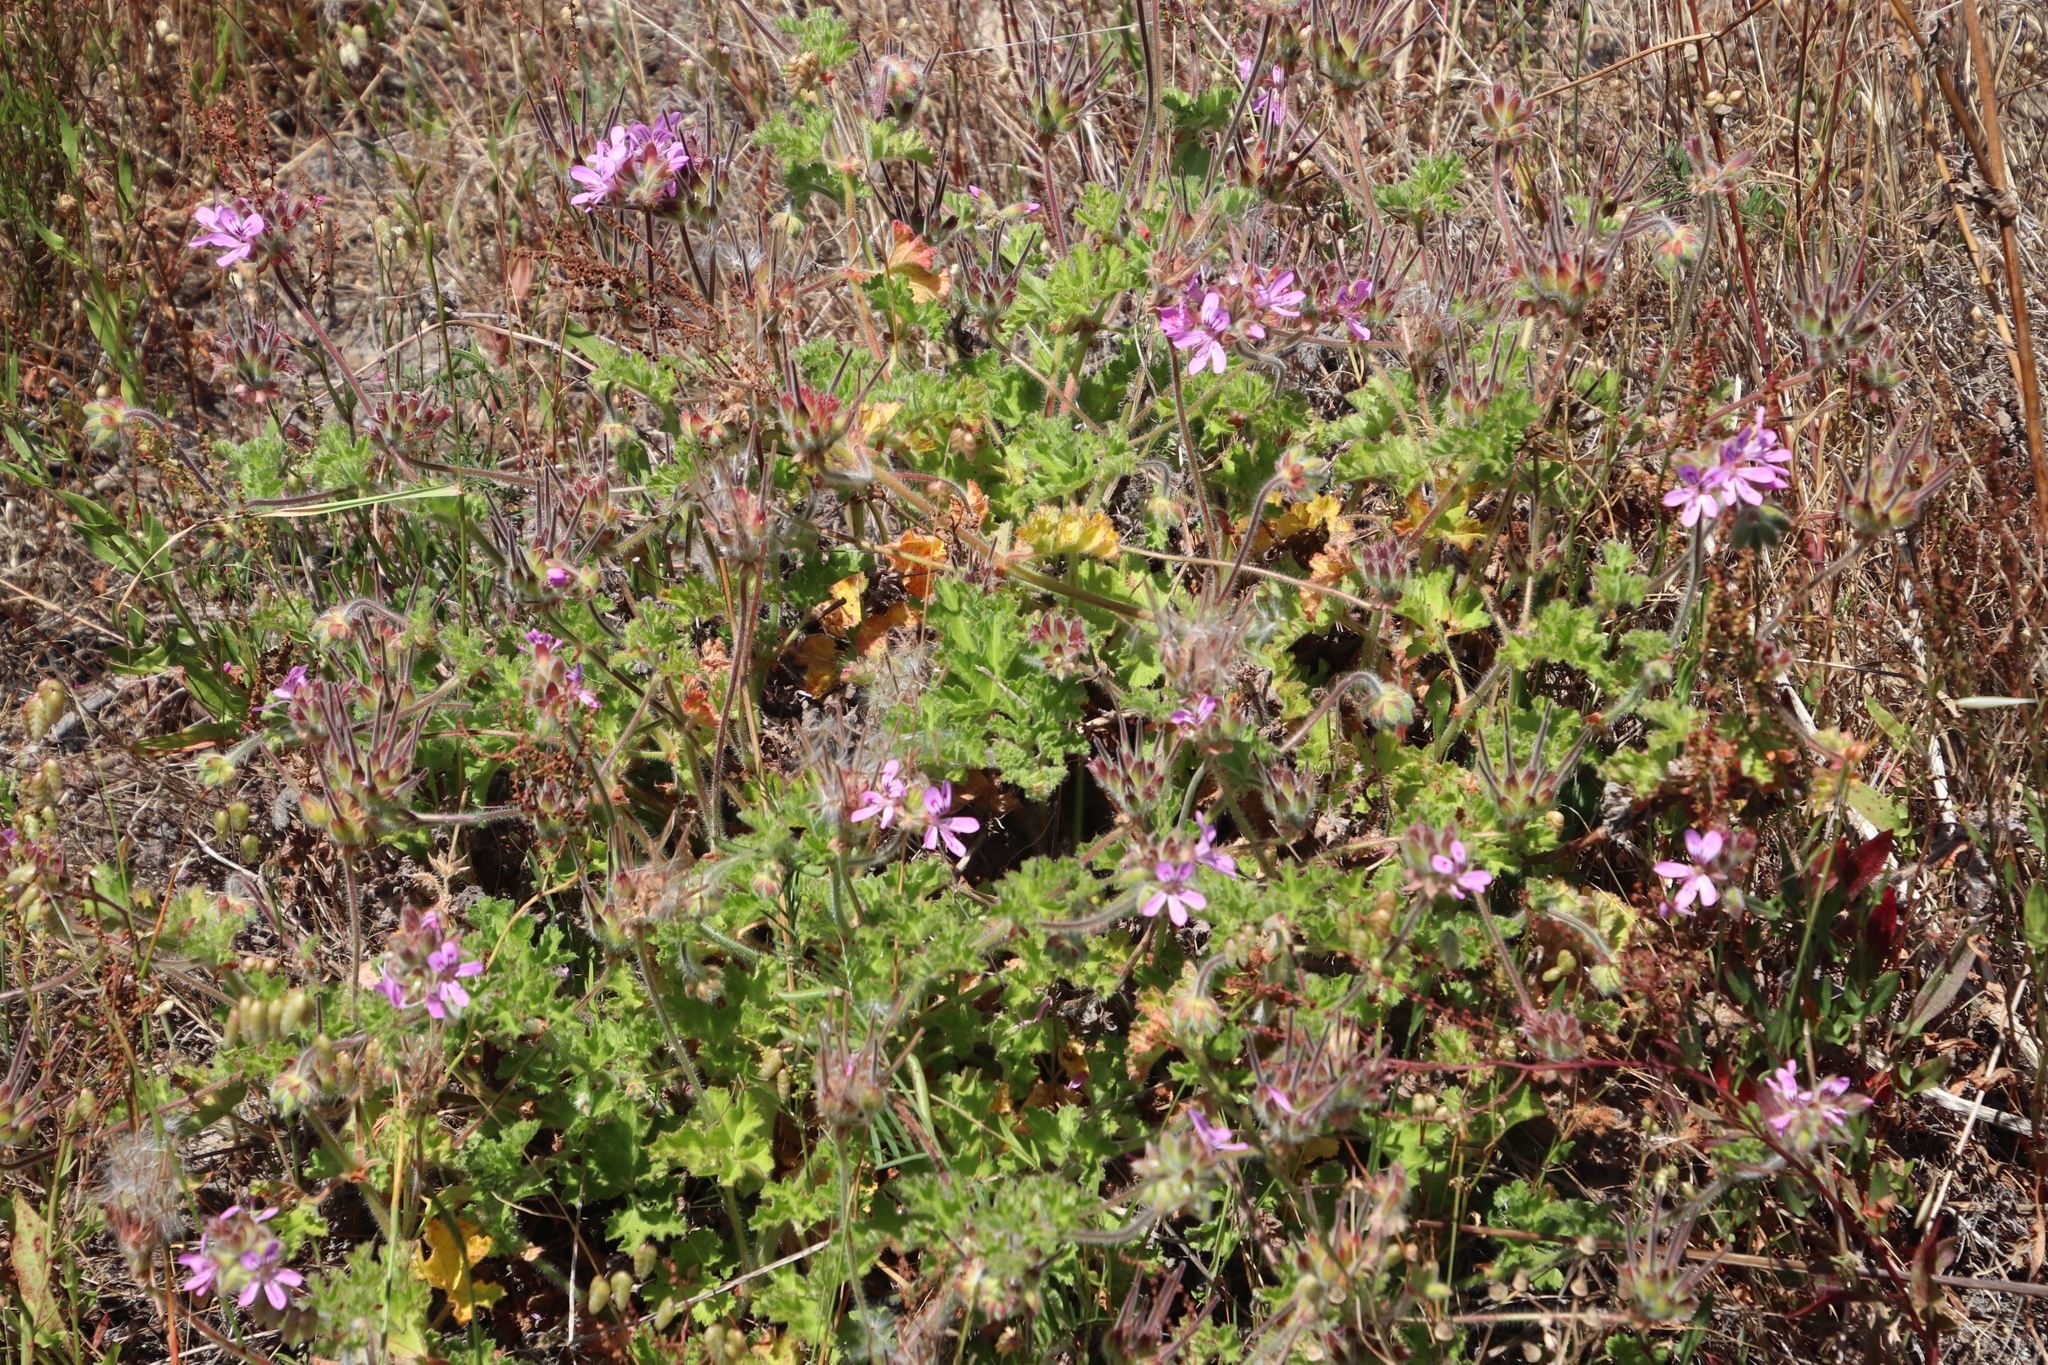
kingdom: Plantae
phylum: Tracheophyta
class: Magnoliopsida
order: Geraniales
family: Geraniaceae
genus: Pelargonium
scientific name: Pelargonium capitatum
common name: Rose scented geranium
